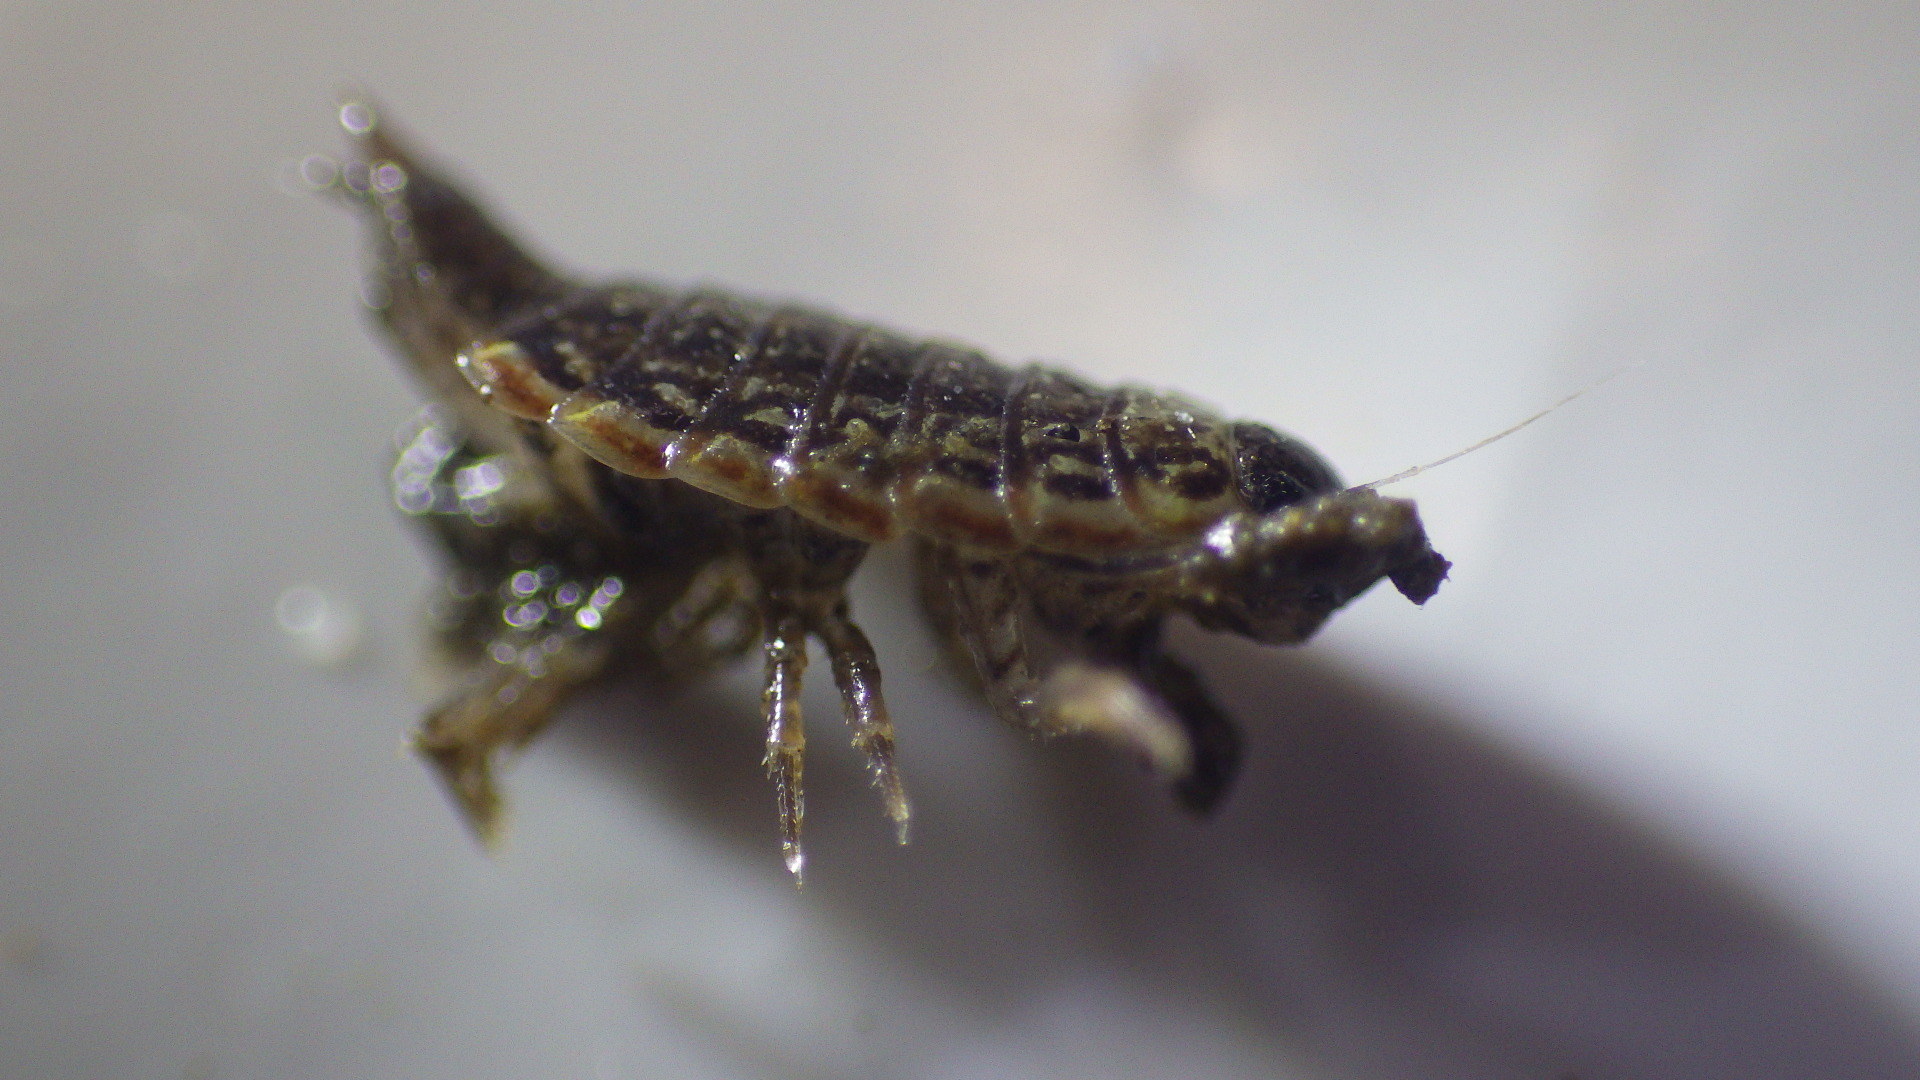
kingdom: Animalia
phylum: Arthropoda
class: Malacostraca
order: Isopoda
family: Philosciidae
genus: Philoscia
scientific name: Philoscia muscorum
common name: Common striped woodlouse
